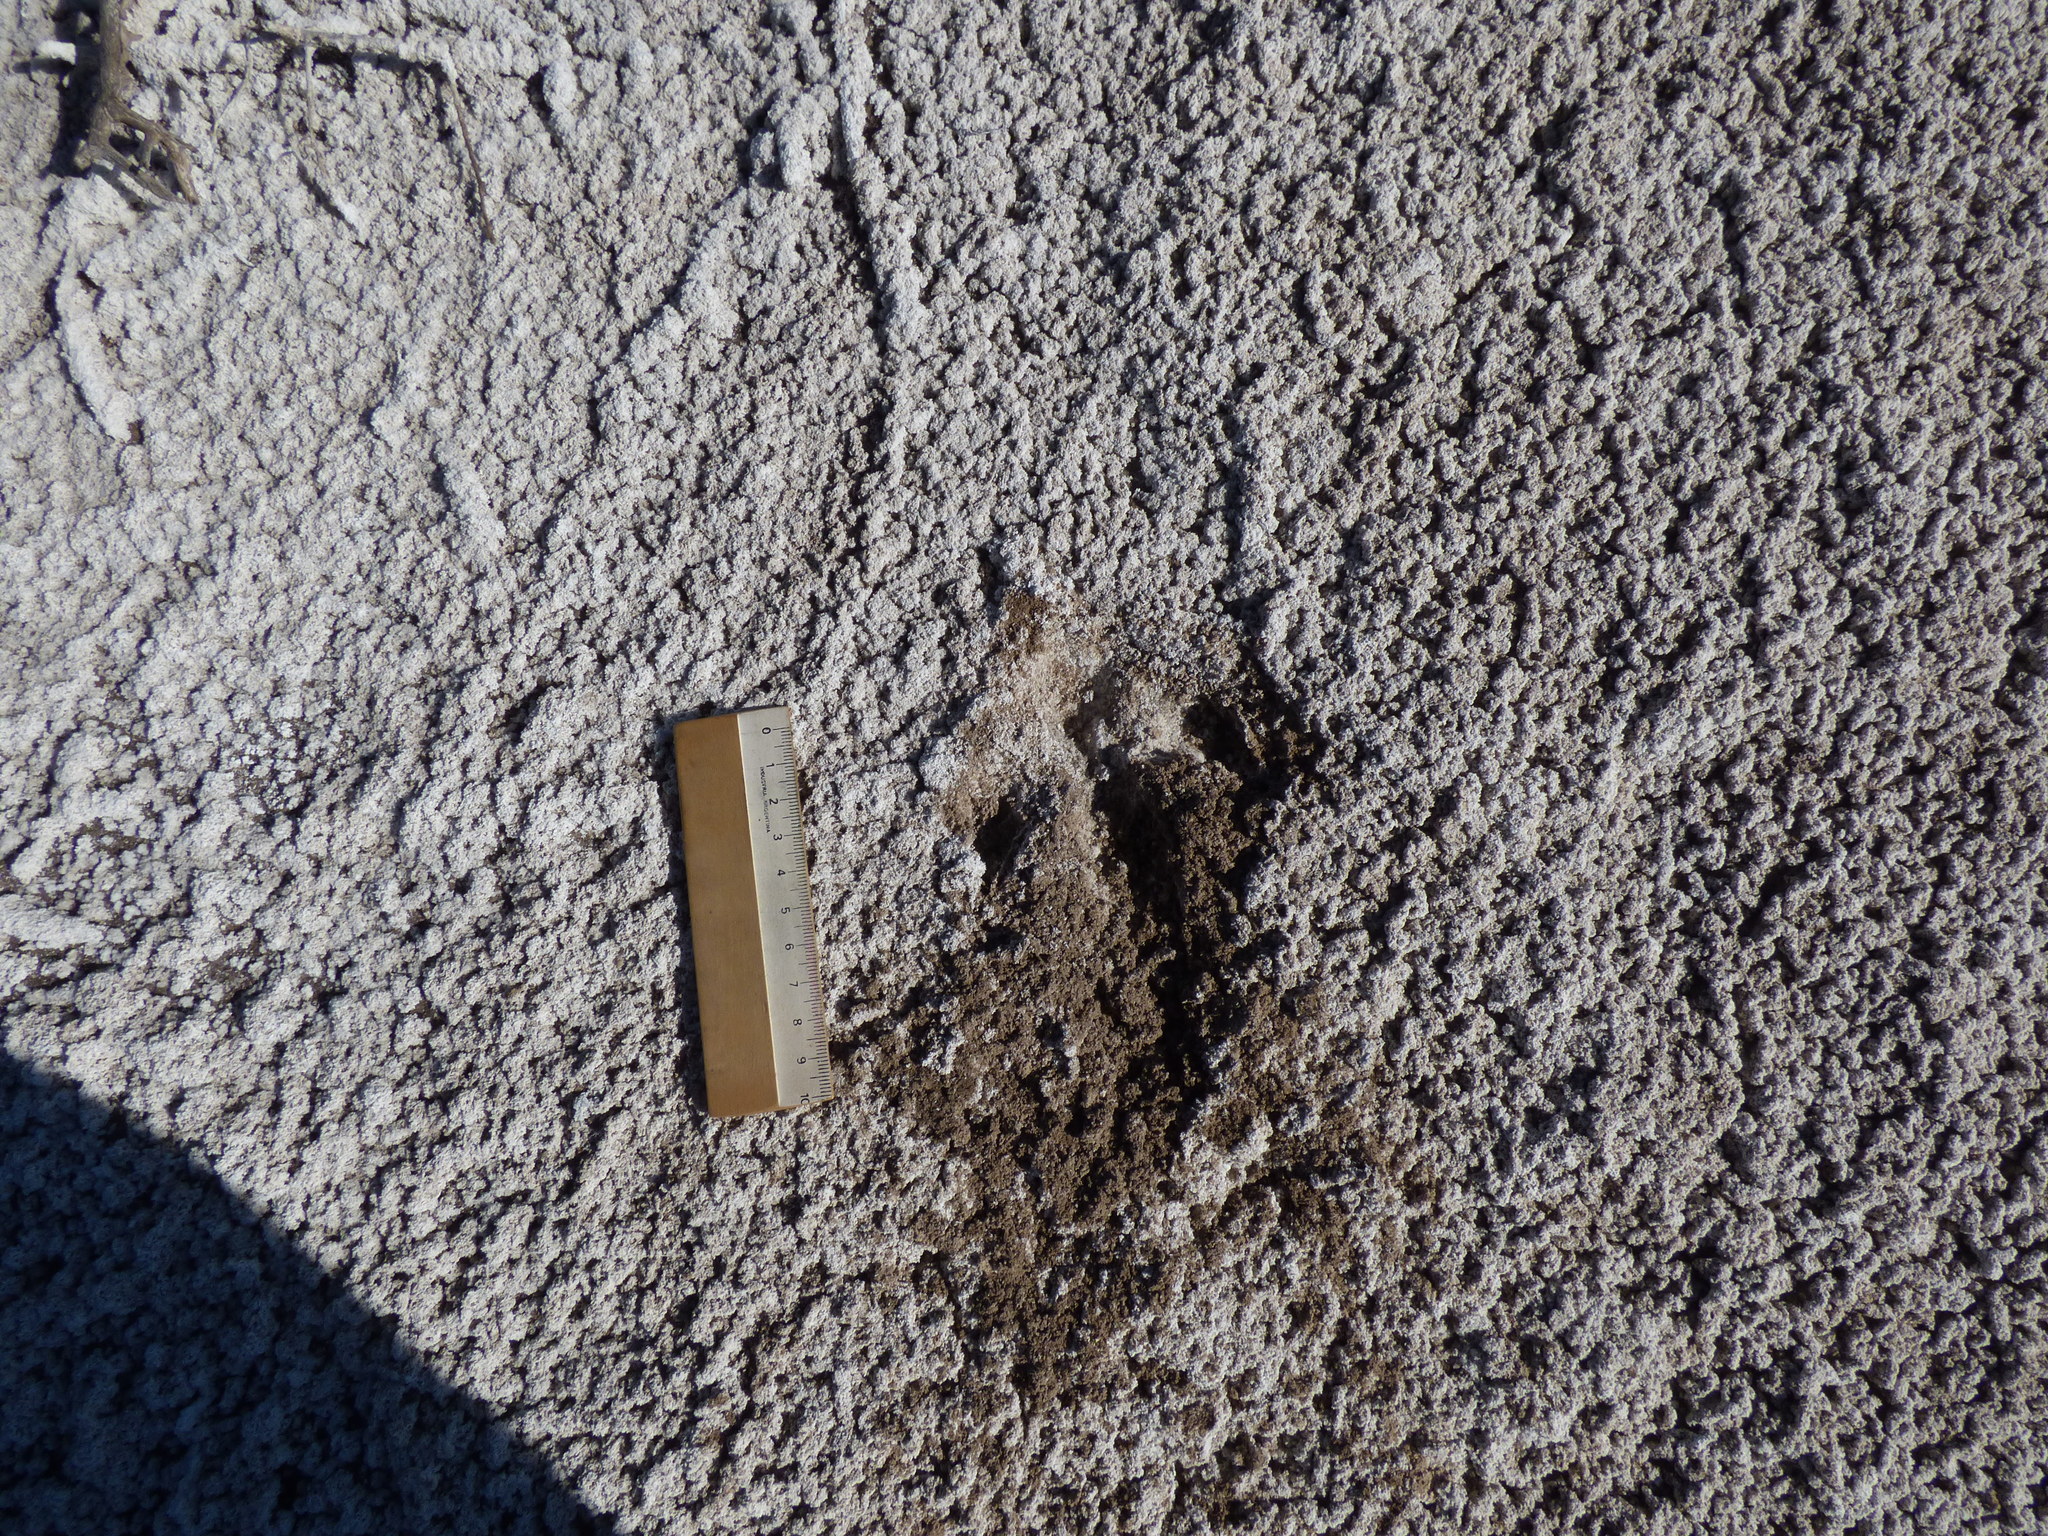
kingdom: Animalia
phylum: Chordata
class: Aves
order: Rheiformes
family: Rheidae
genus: Rhea
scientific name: Rhea americana
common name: Greater rhea
